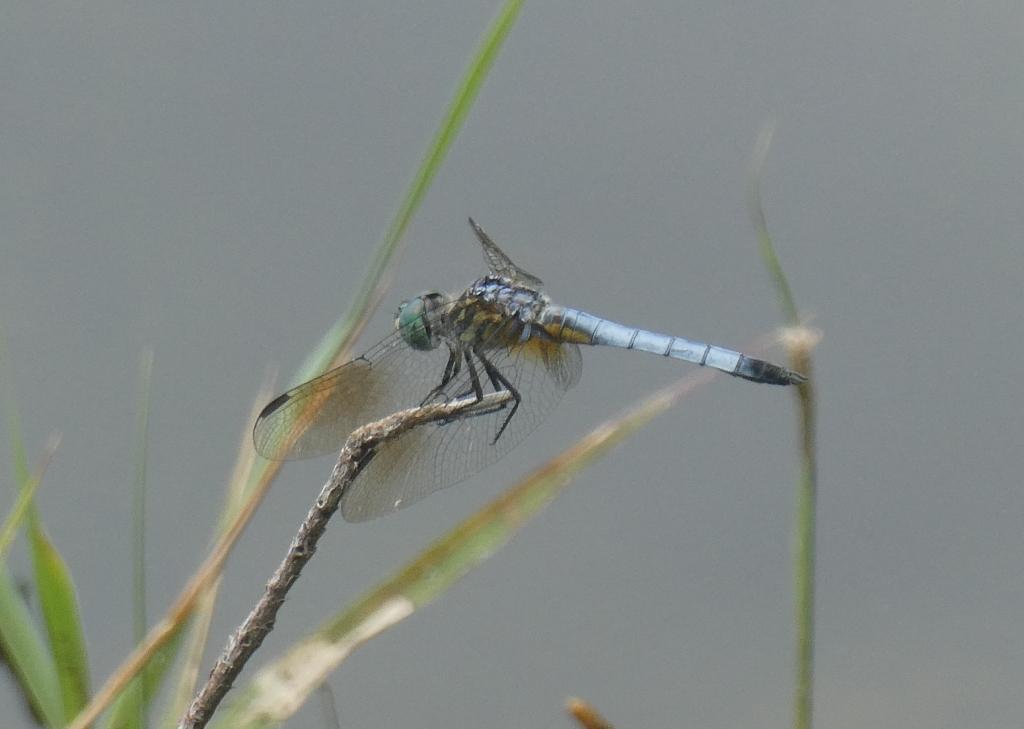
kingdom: Animalia
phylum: Arthropoda
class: Insecta
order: Odonata
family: Libellulidae
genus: Pachydiplax
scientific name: Pachydiplax longipennis
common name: Blue dasher
